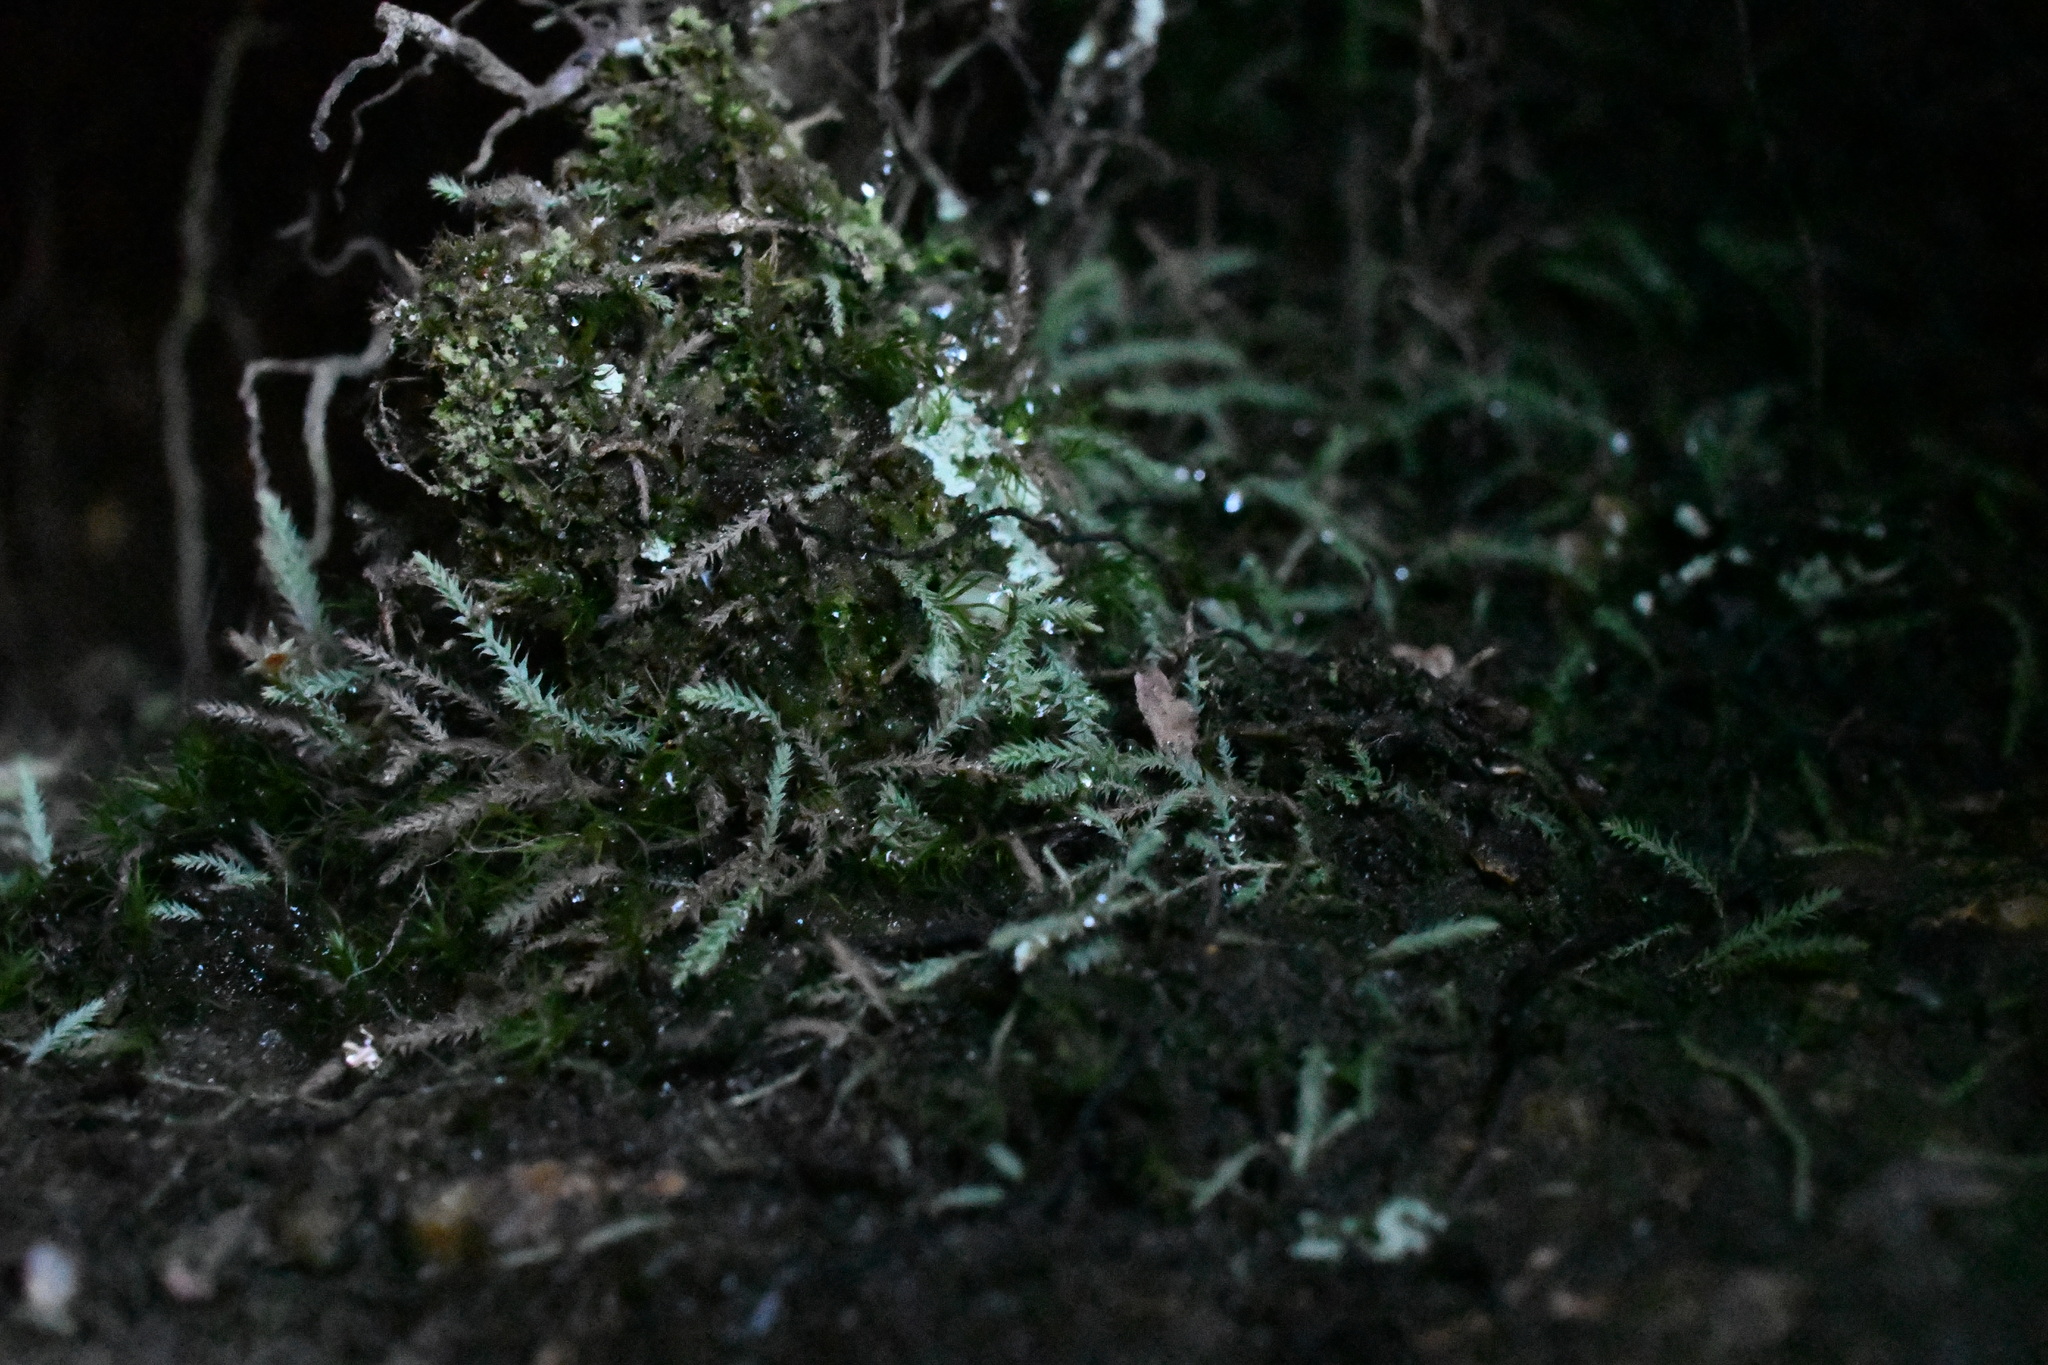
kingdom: Plantae
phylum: Bryophyta
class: Bryopsida
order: Bartramiales
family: Bartramiaceae
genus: Philonotis
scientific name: Philonotis scabrifolia
